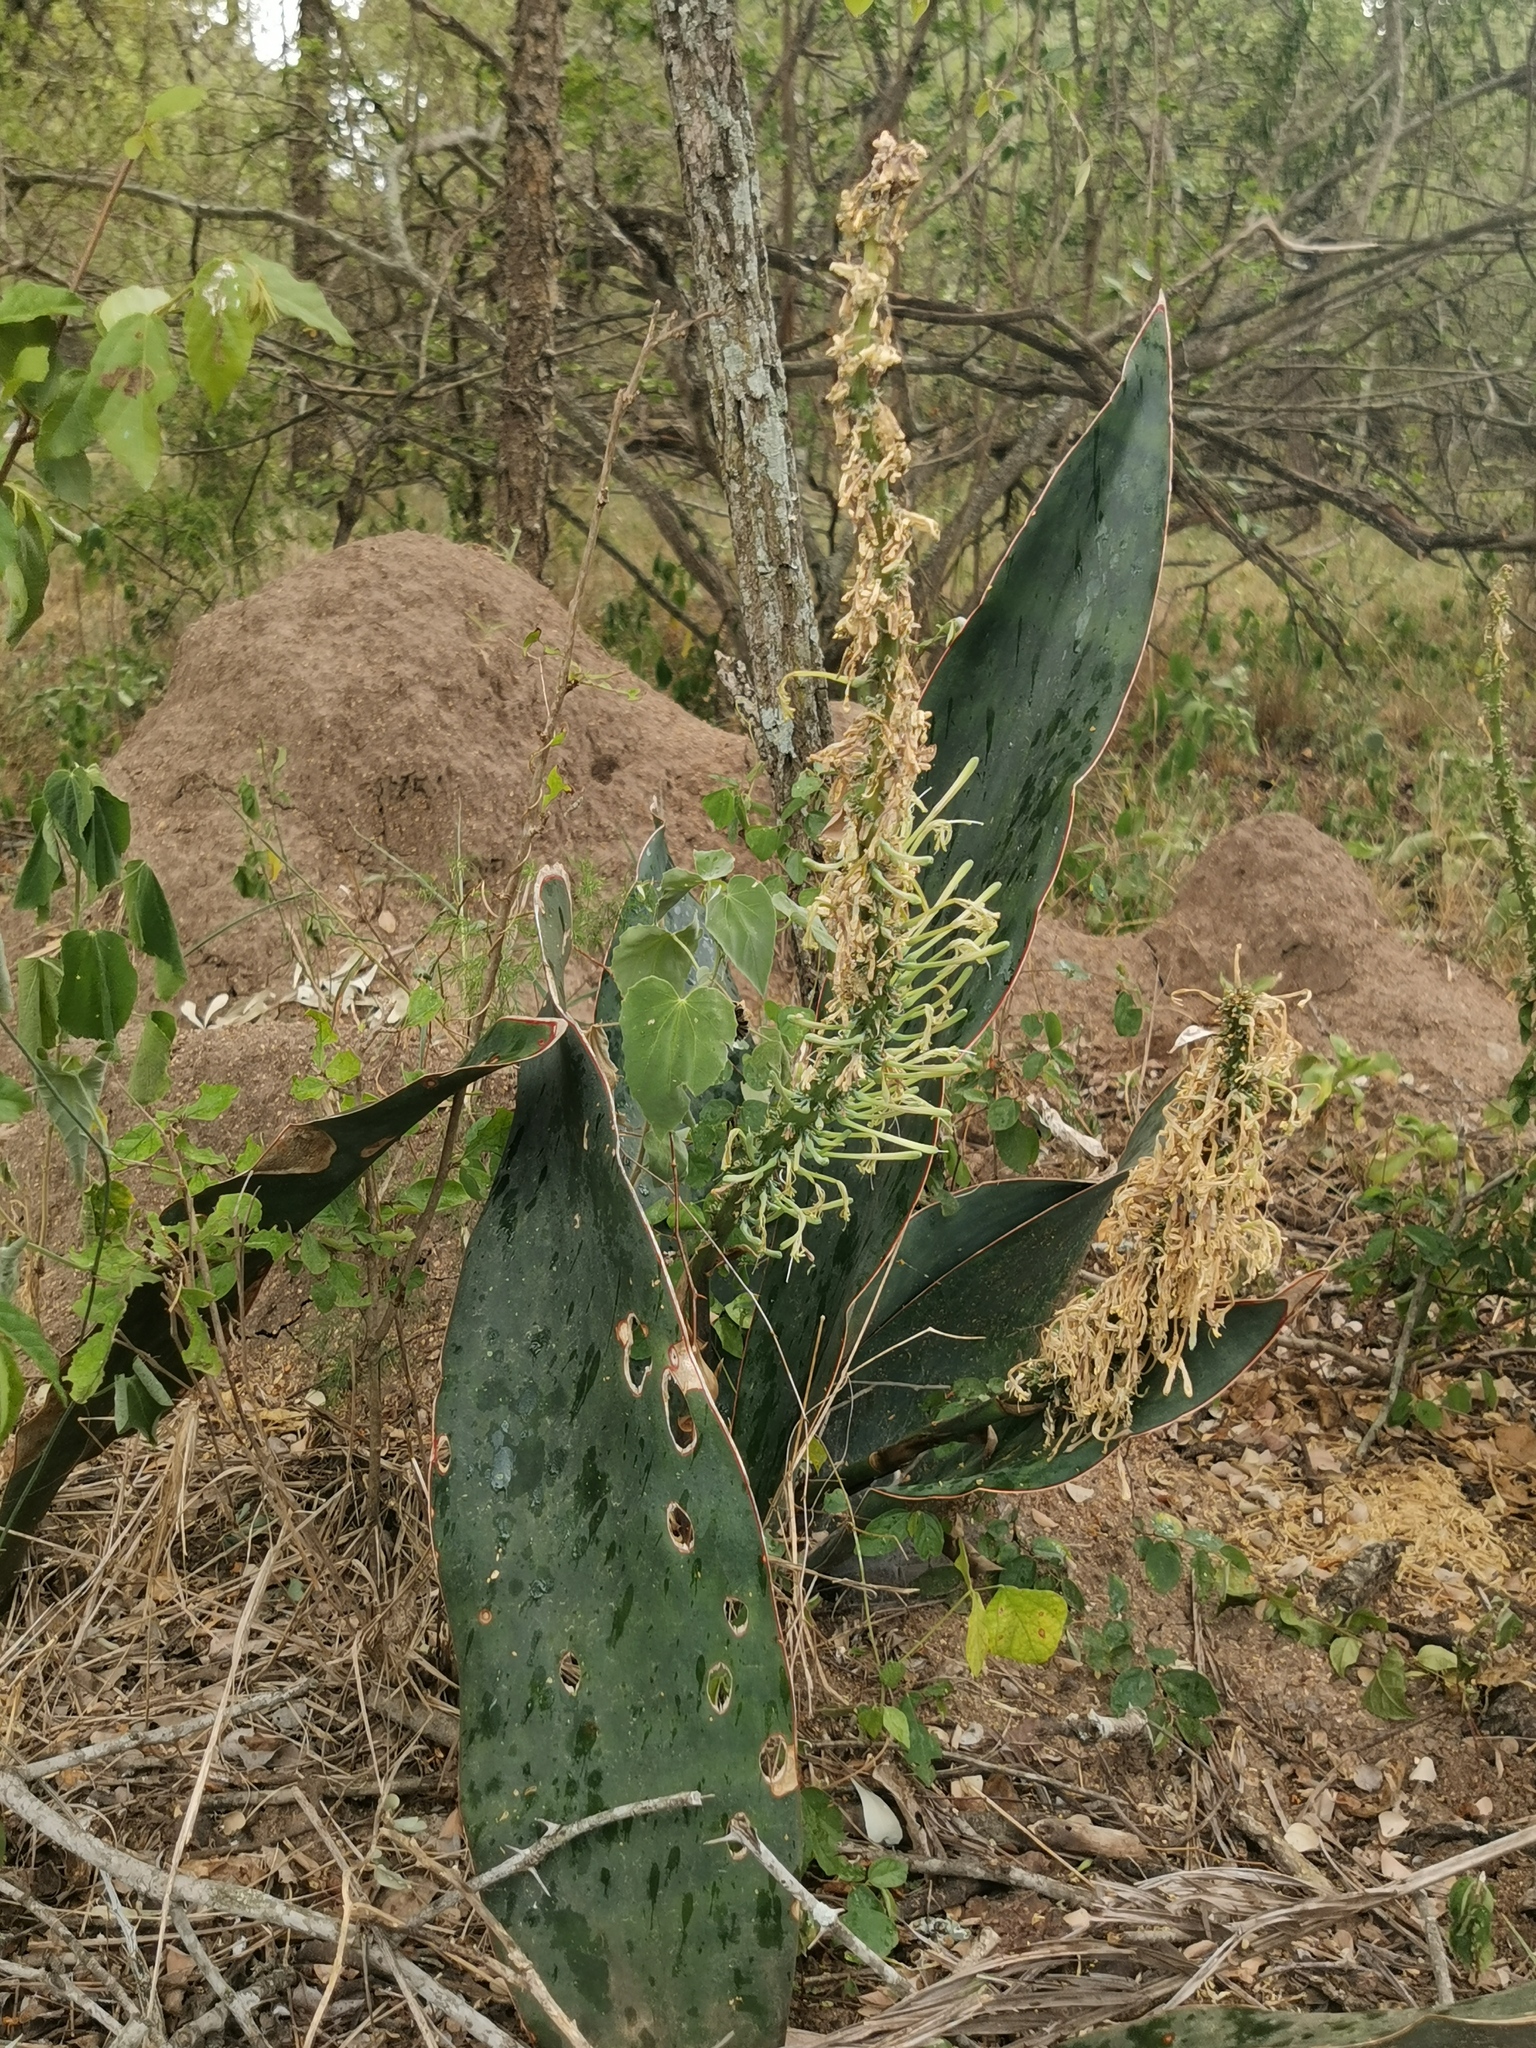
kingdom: Plantae
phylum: Tracheophyta
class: Liliopsida
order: Asparagales
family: Asparagaceae
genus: Dracaena
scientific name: Dracaena aethiopica
